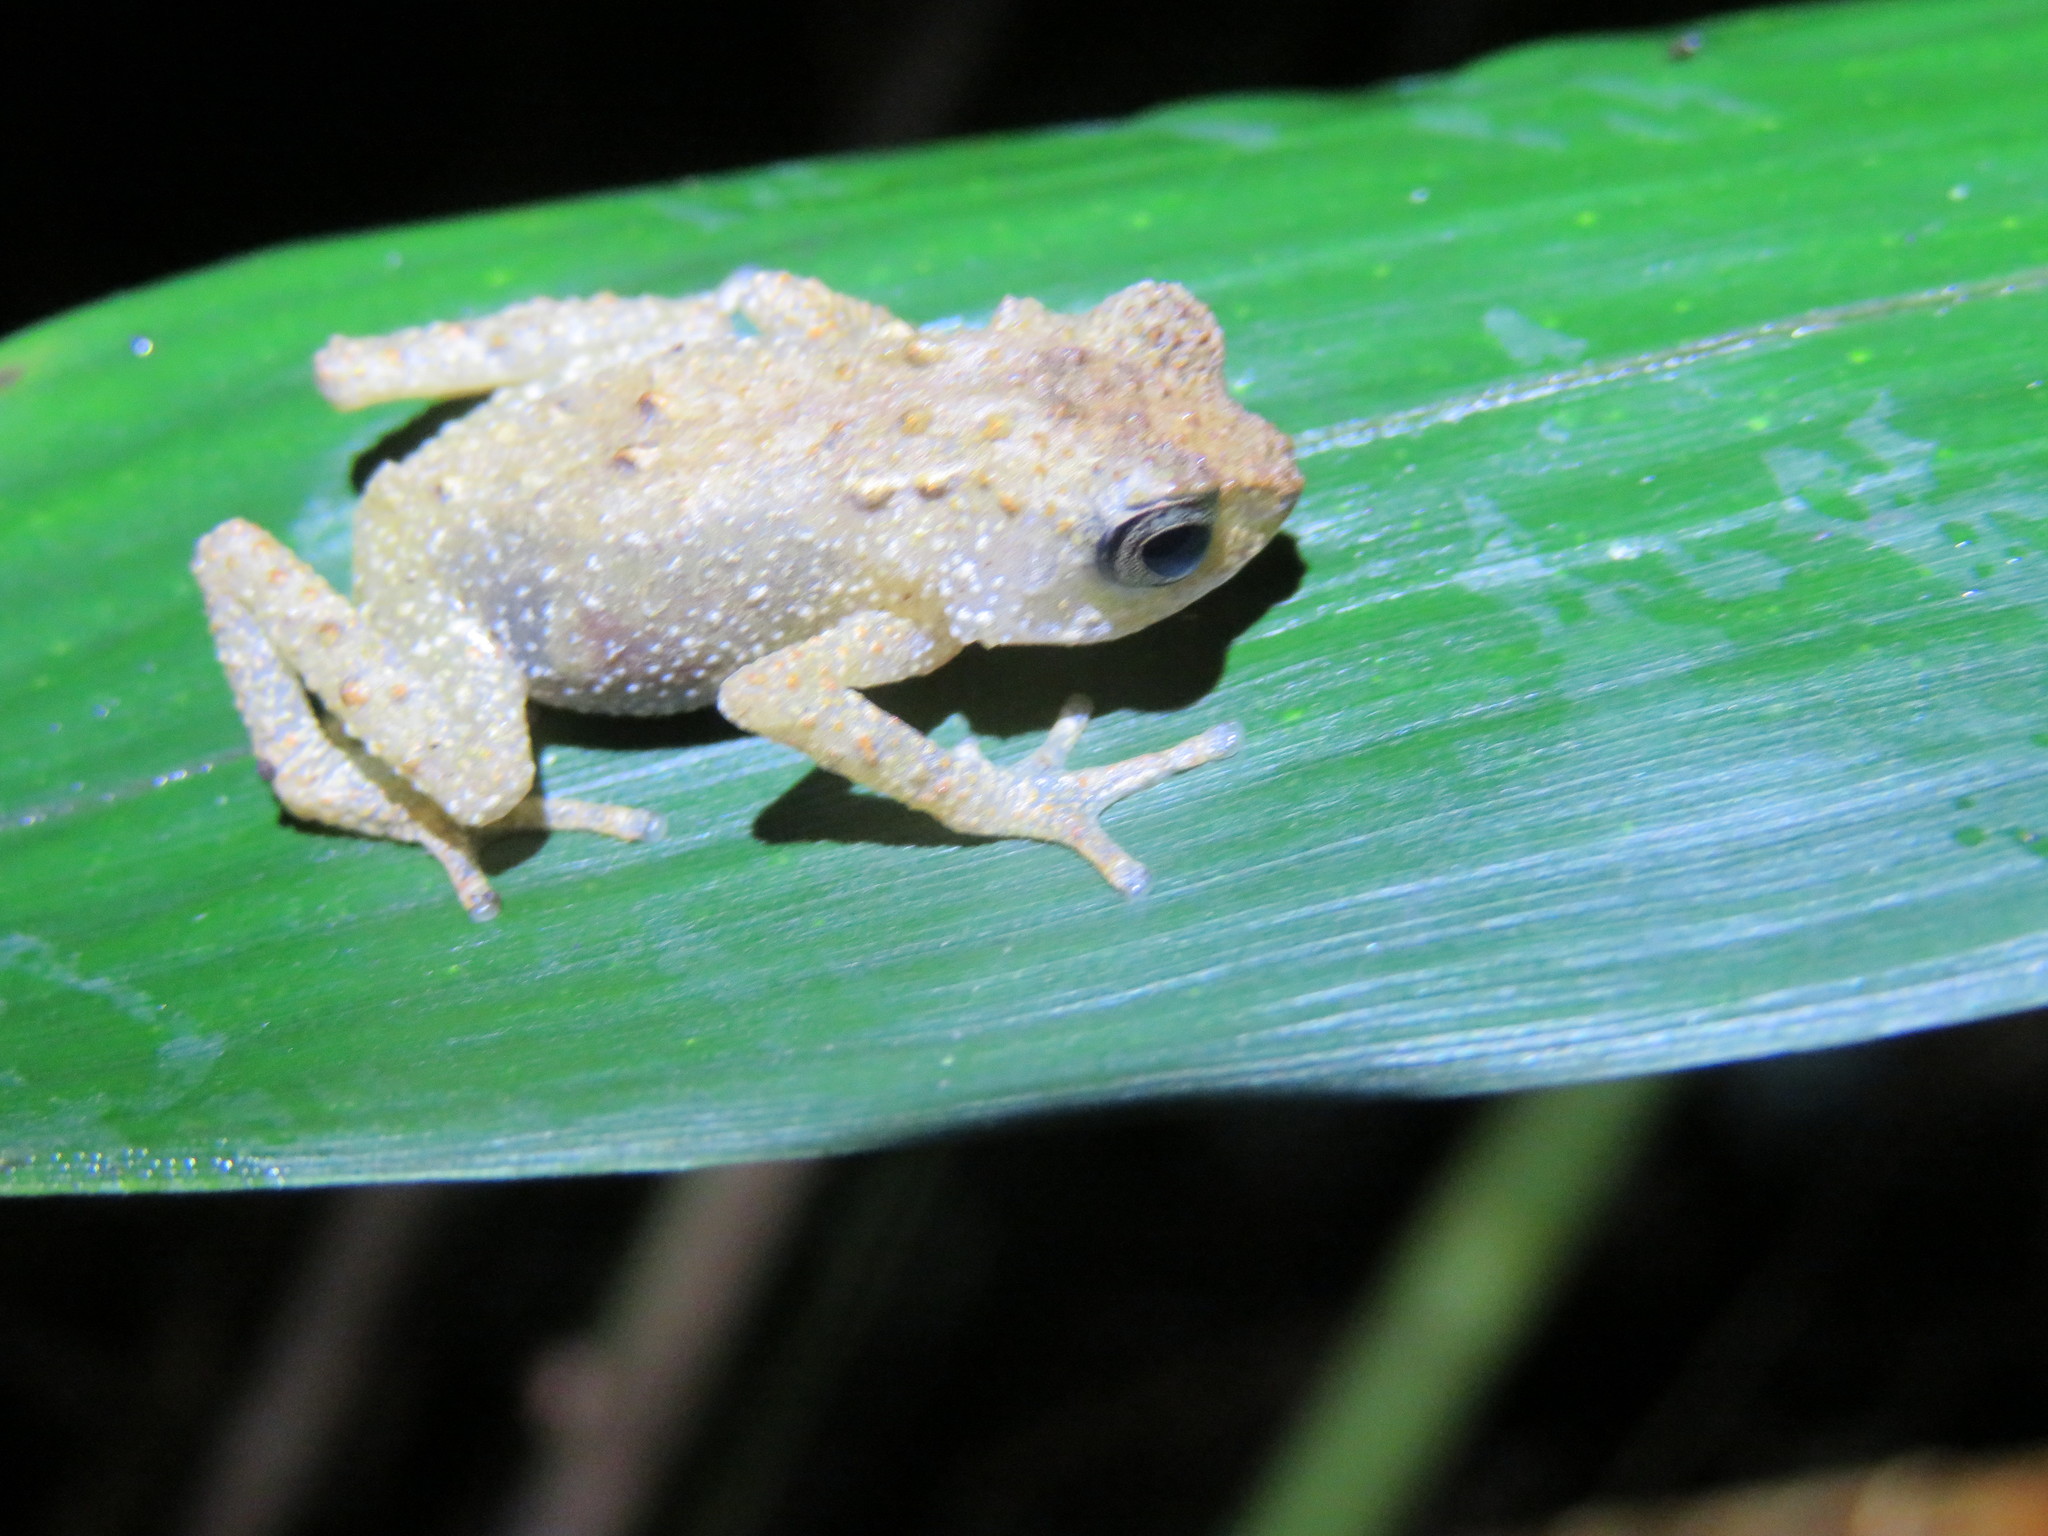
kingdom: Animalia
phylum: Chordata
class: Amphibia
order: Anura
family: Bufonidae
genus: Nectophrynoides
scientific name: Nectophrynoides tornieri
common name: Tornier's forest toad
